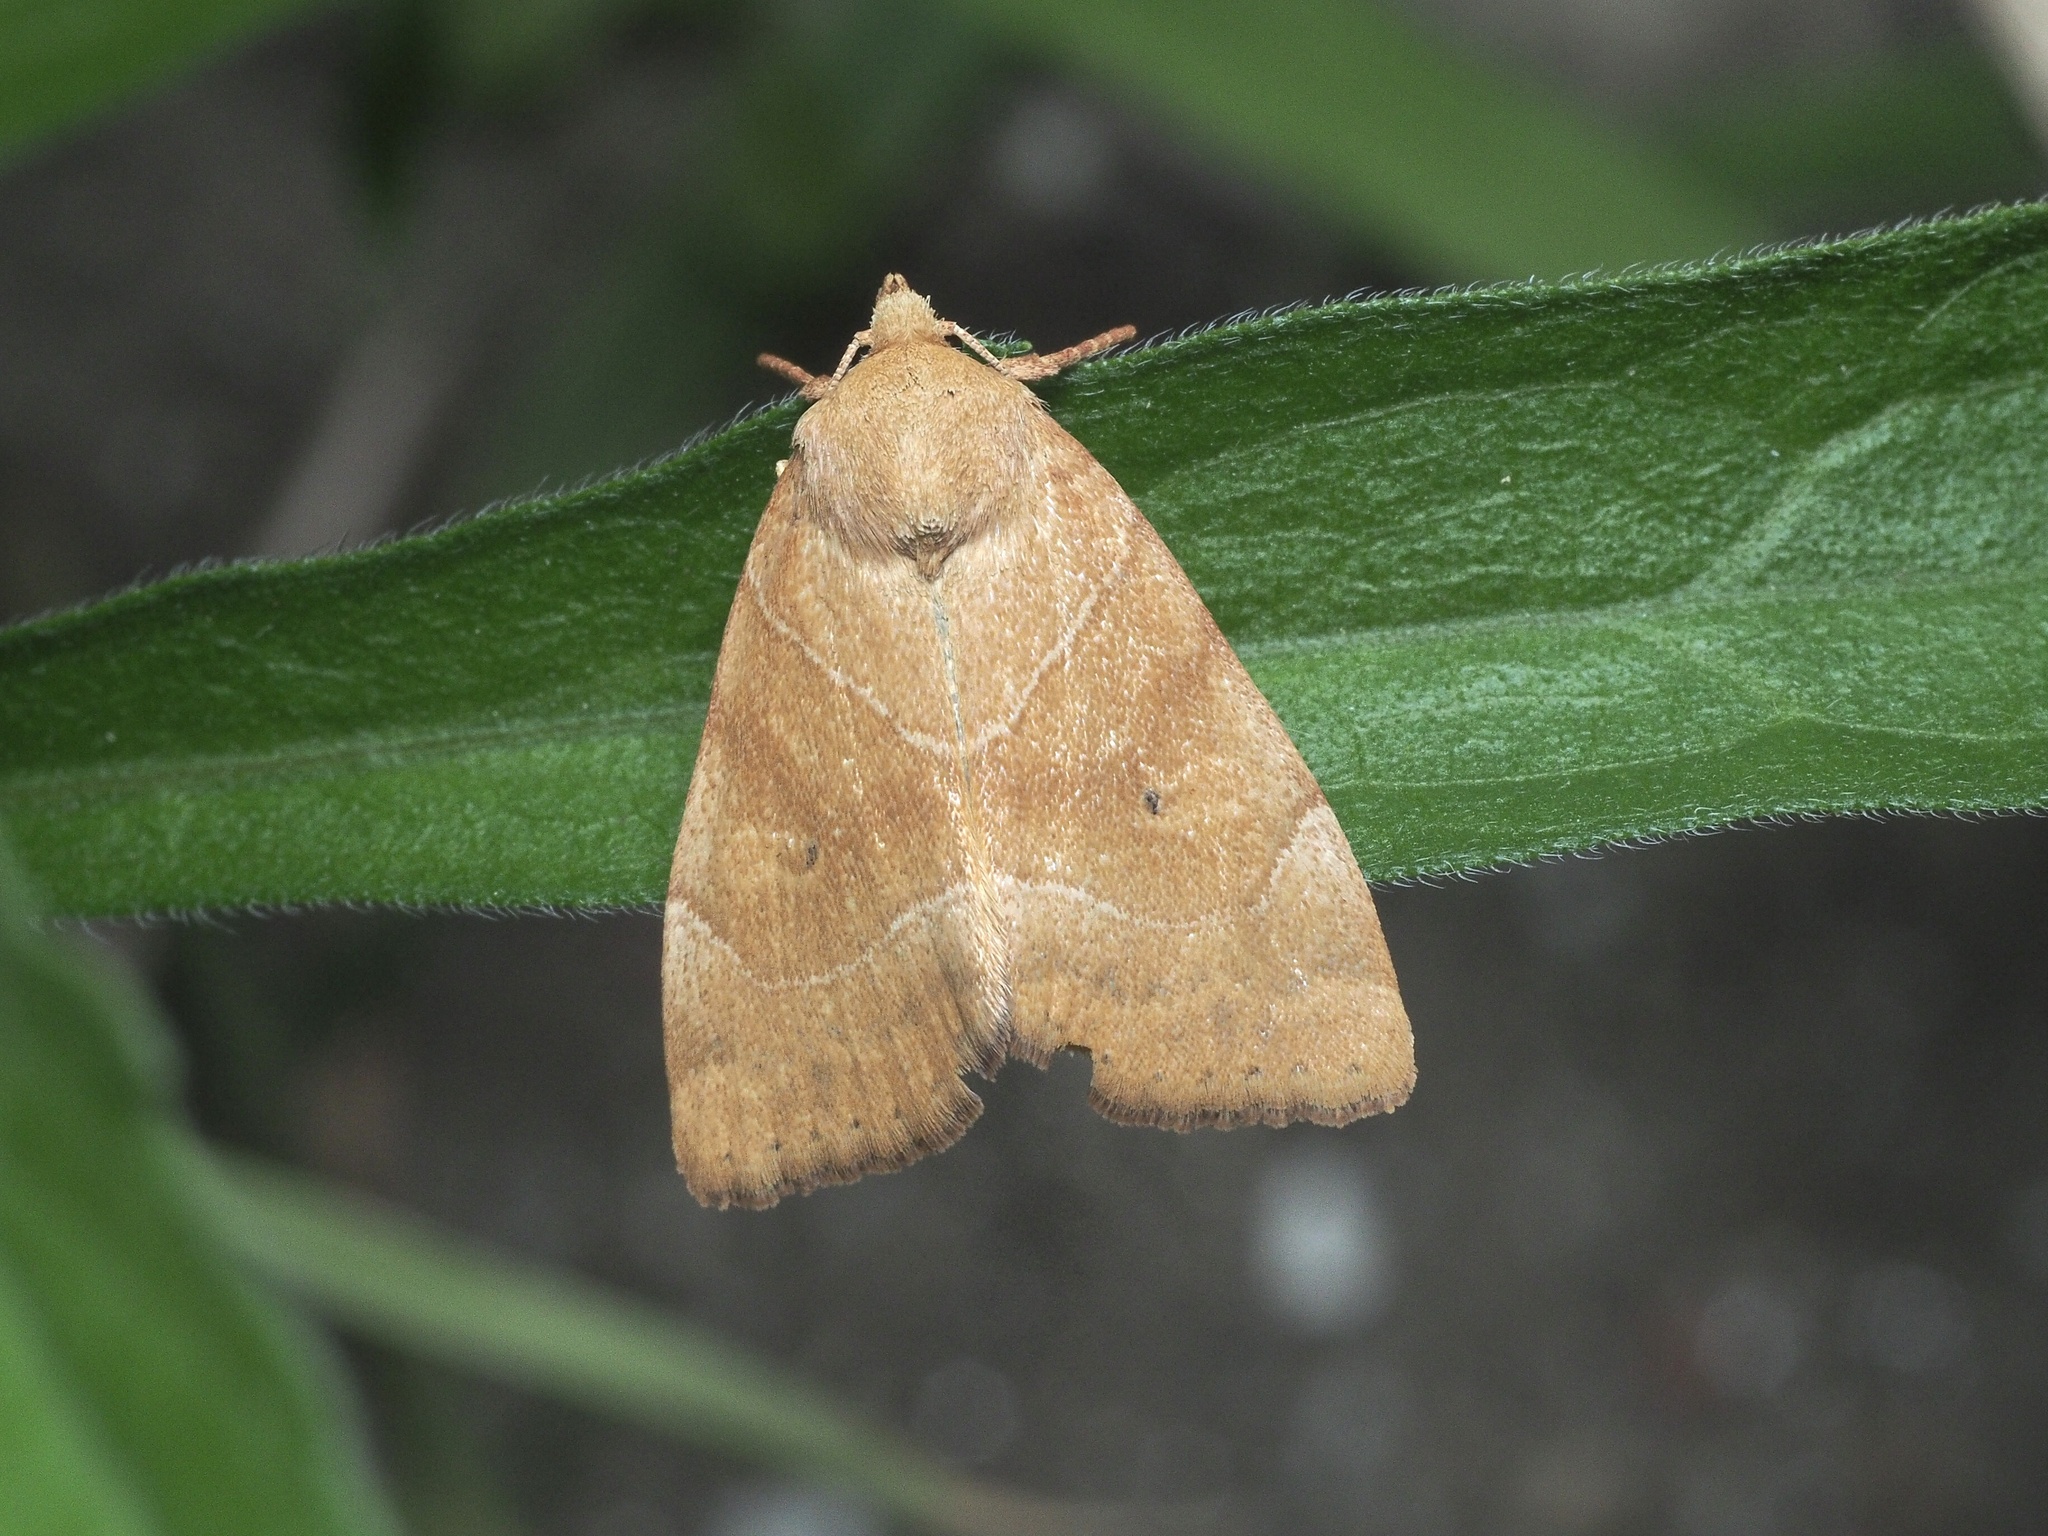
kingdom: Animalia
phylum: Arthropoda
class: Insecta
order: Lepidoptera
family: Noctuidae
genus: Cosmia
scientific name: Cosmia trapezina
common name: Dun-bar
